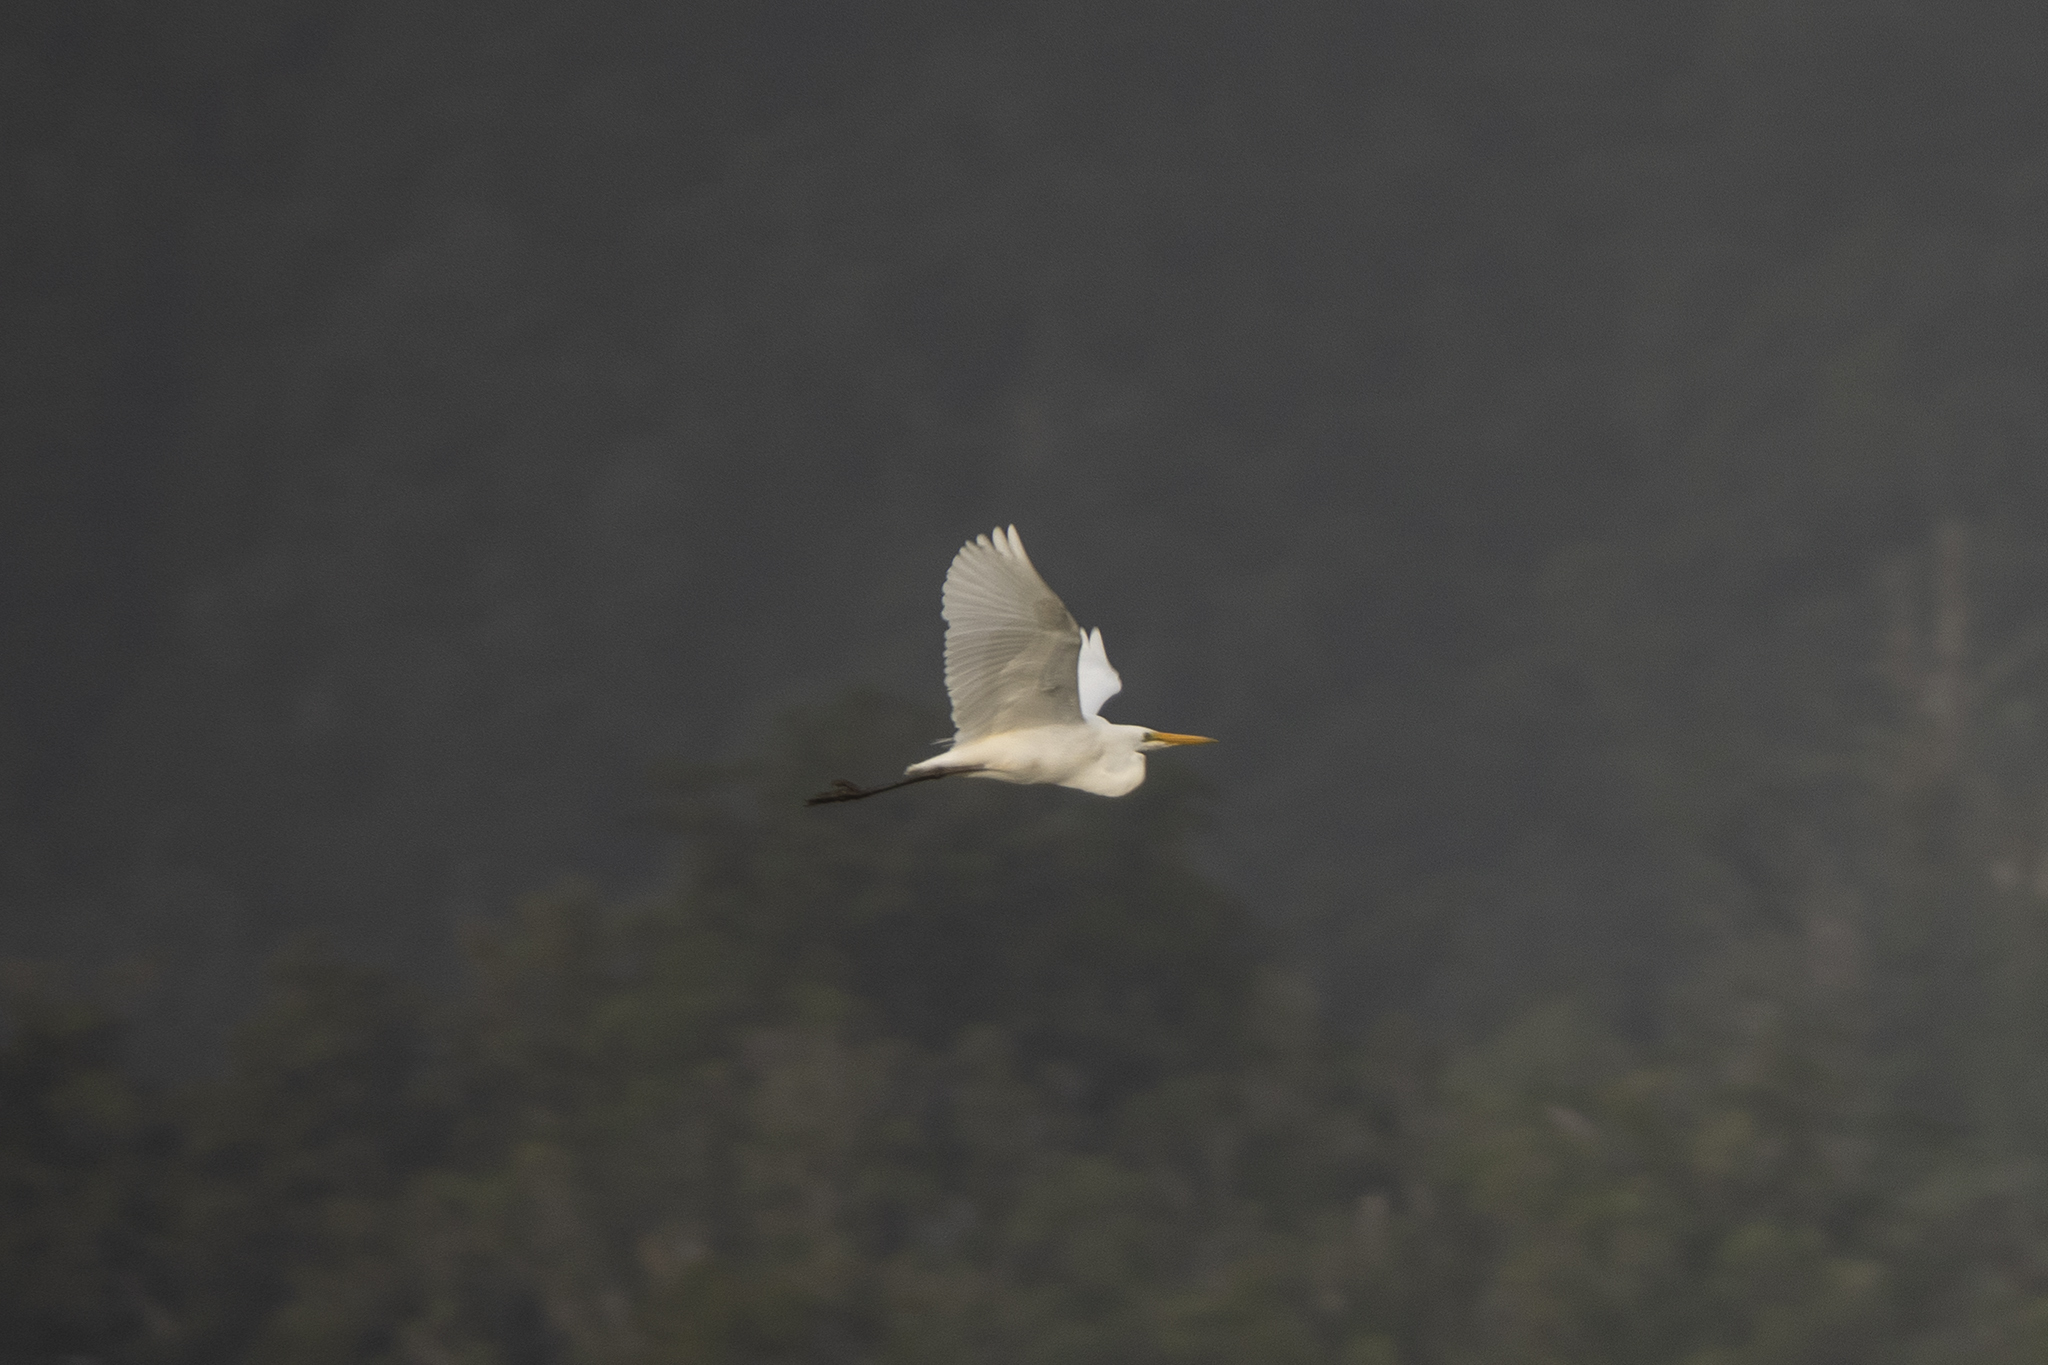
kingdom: Animalia
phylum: Chordata
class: Aves
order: Pelecaniformes
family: Ardeidae
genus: Ardea
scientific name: Ardea modesta
